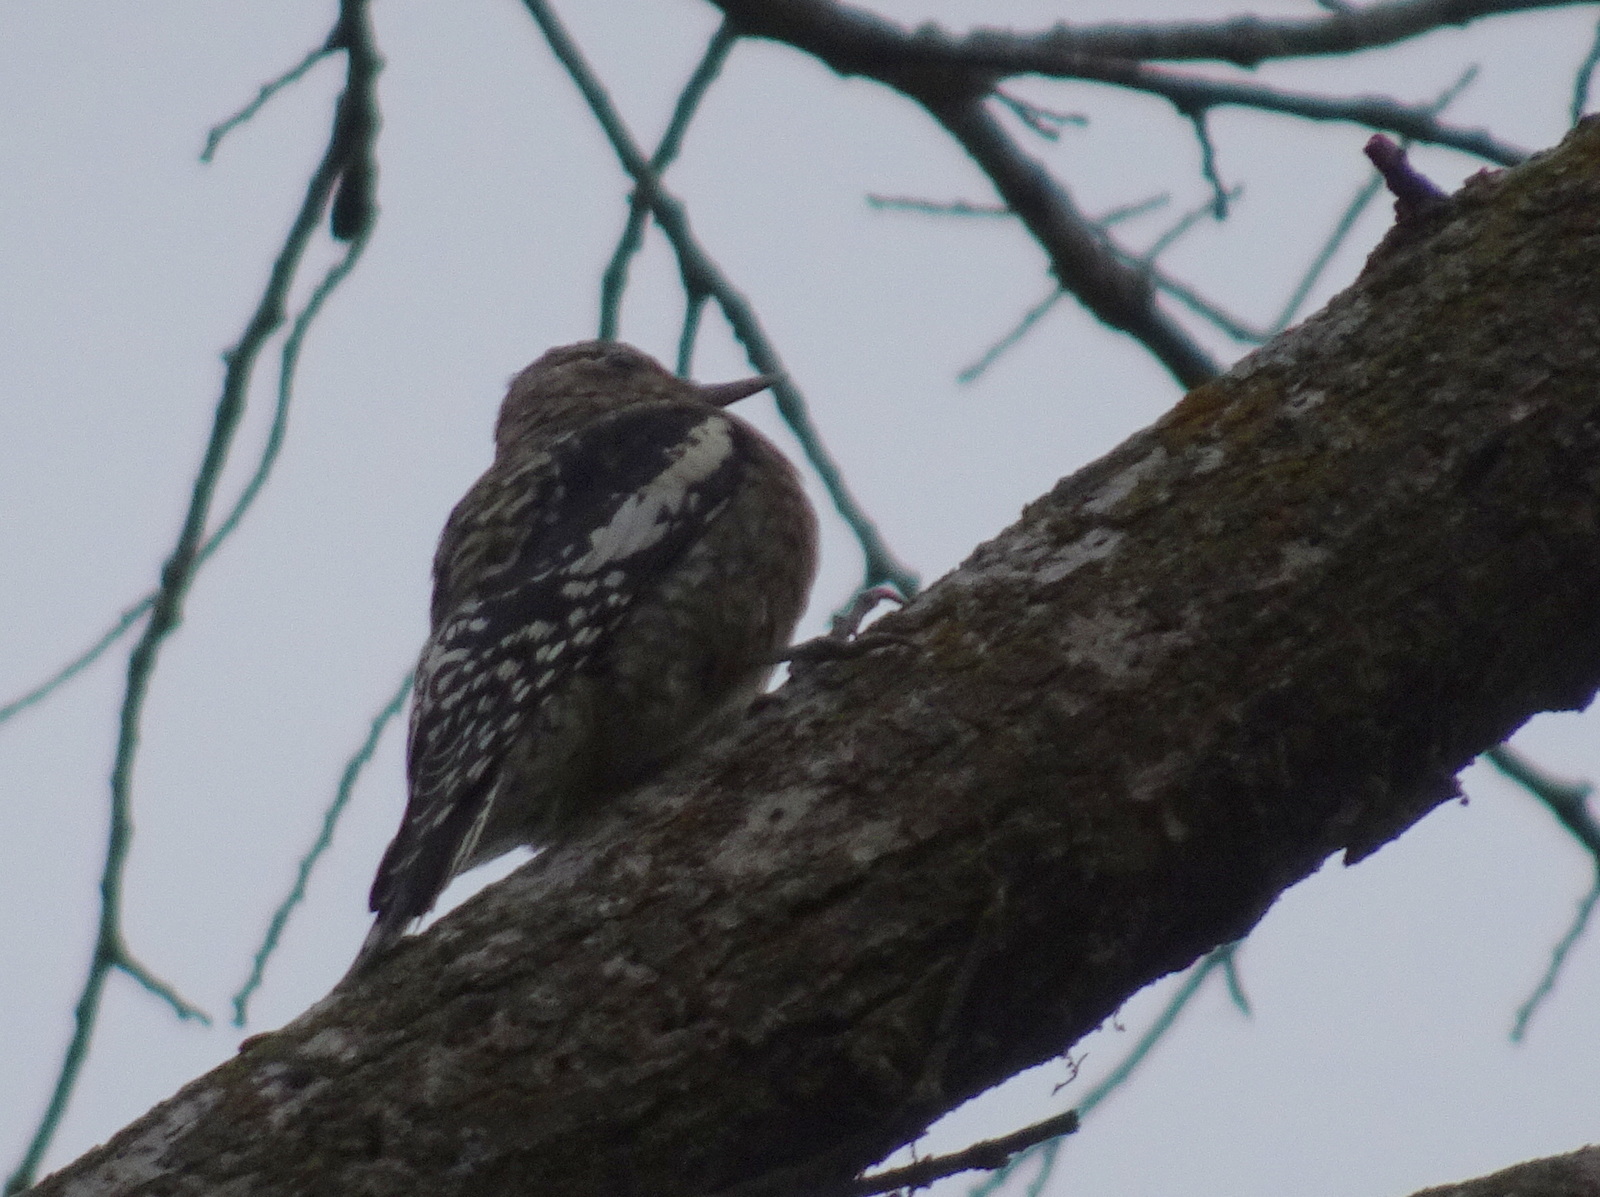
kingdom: Animalia
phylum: Chordata
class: Aves
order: Piciformes
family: Picidae
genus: Sphyrapicus
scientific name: Sphyrapicus varius
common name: Yellow-bellied sapsucker
